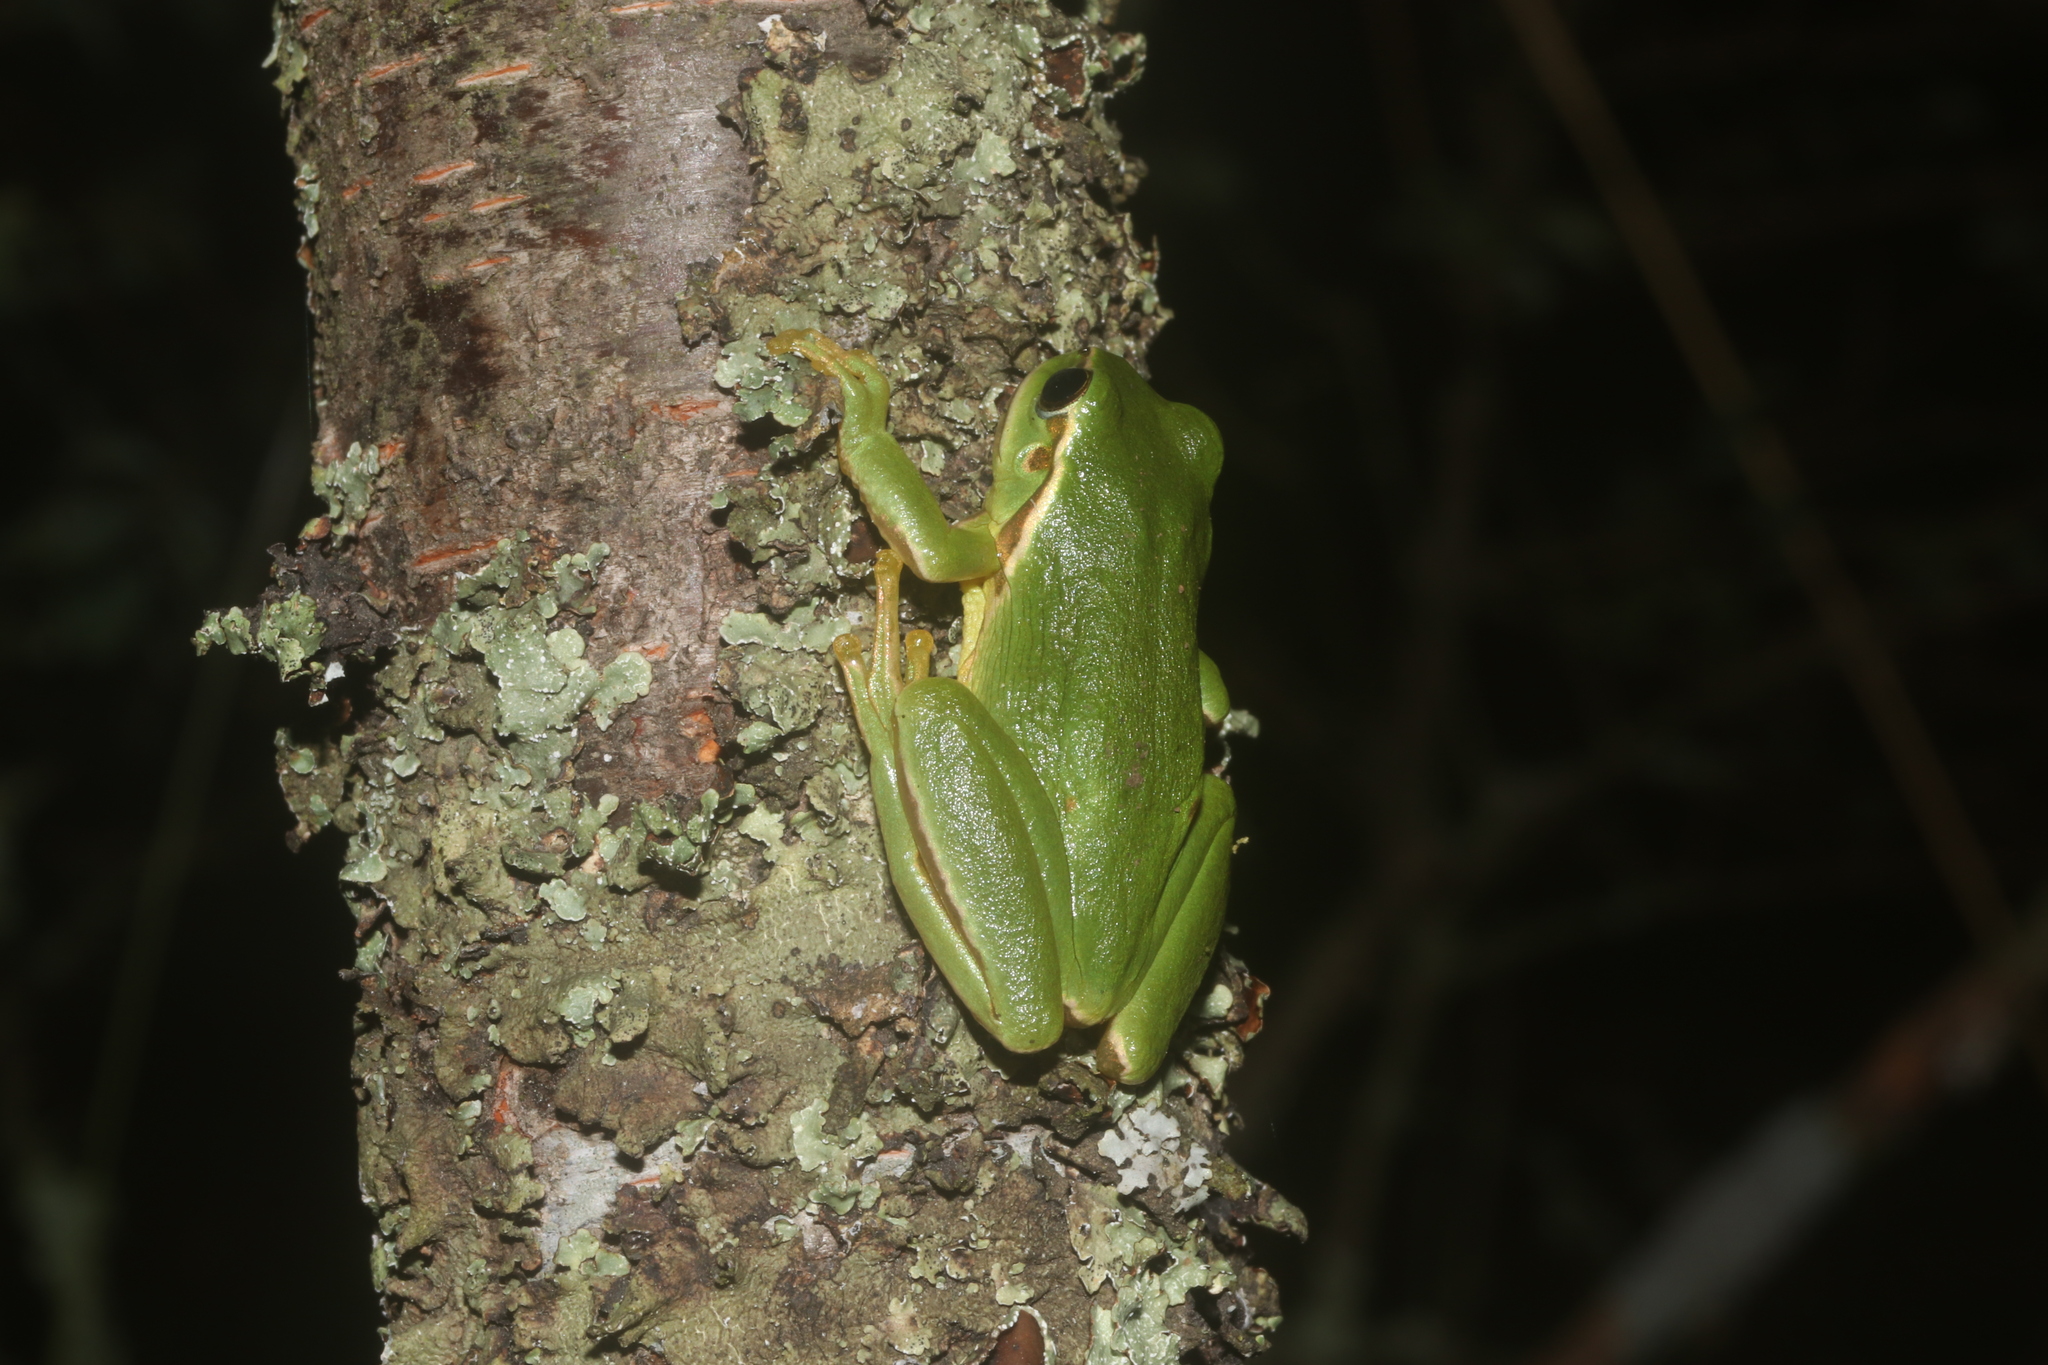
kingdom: Animalia
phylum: Chordata
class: Amphibia
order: Anura
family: Hylidae
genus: Dryophytes
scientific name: Dryophytes plicatus
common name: Ridged treefrog
